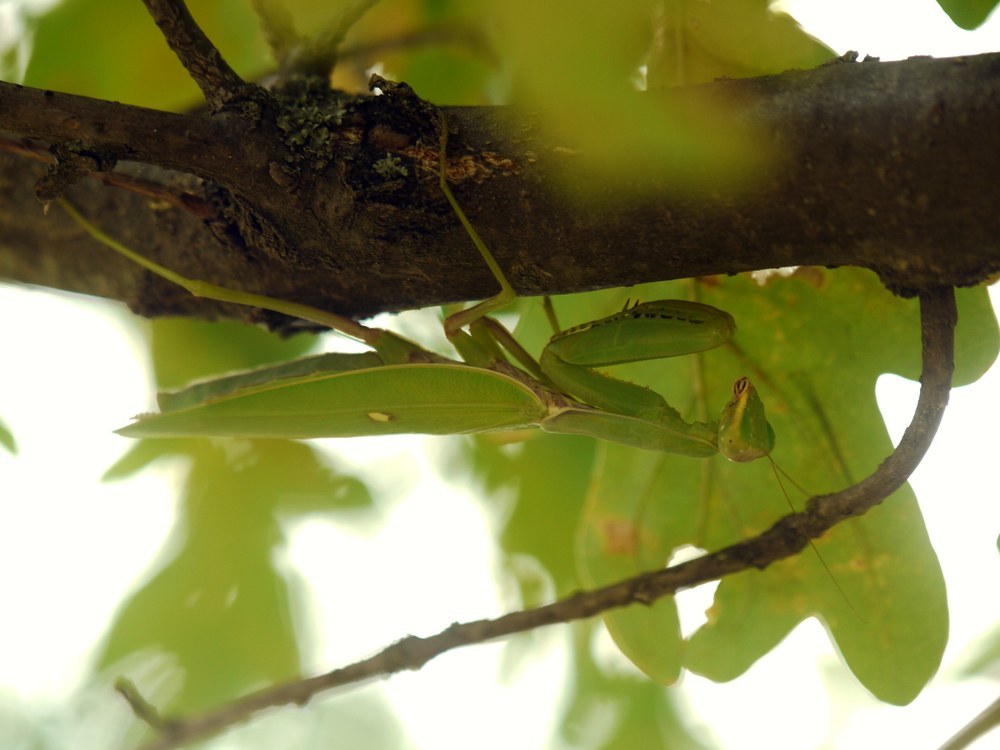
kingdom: Animalia
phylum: Arthropoda
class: Insecta
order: Mantodea
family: Mantidae
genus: Hierodula
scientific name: Hierodula transcaucasica
